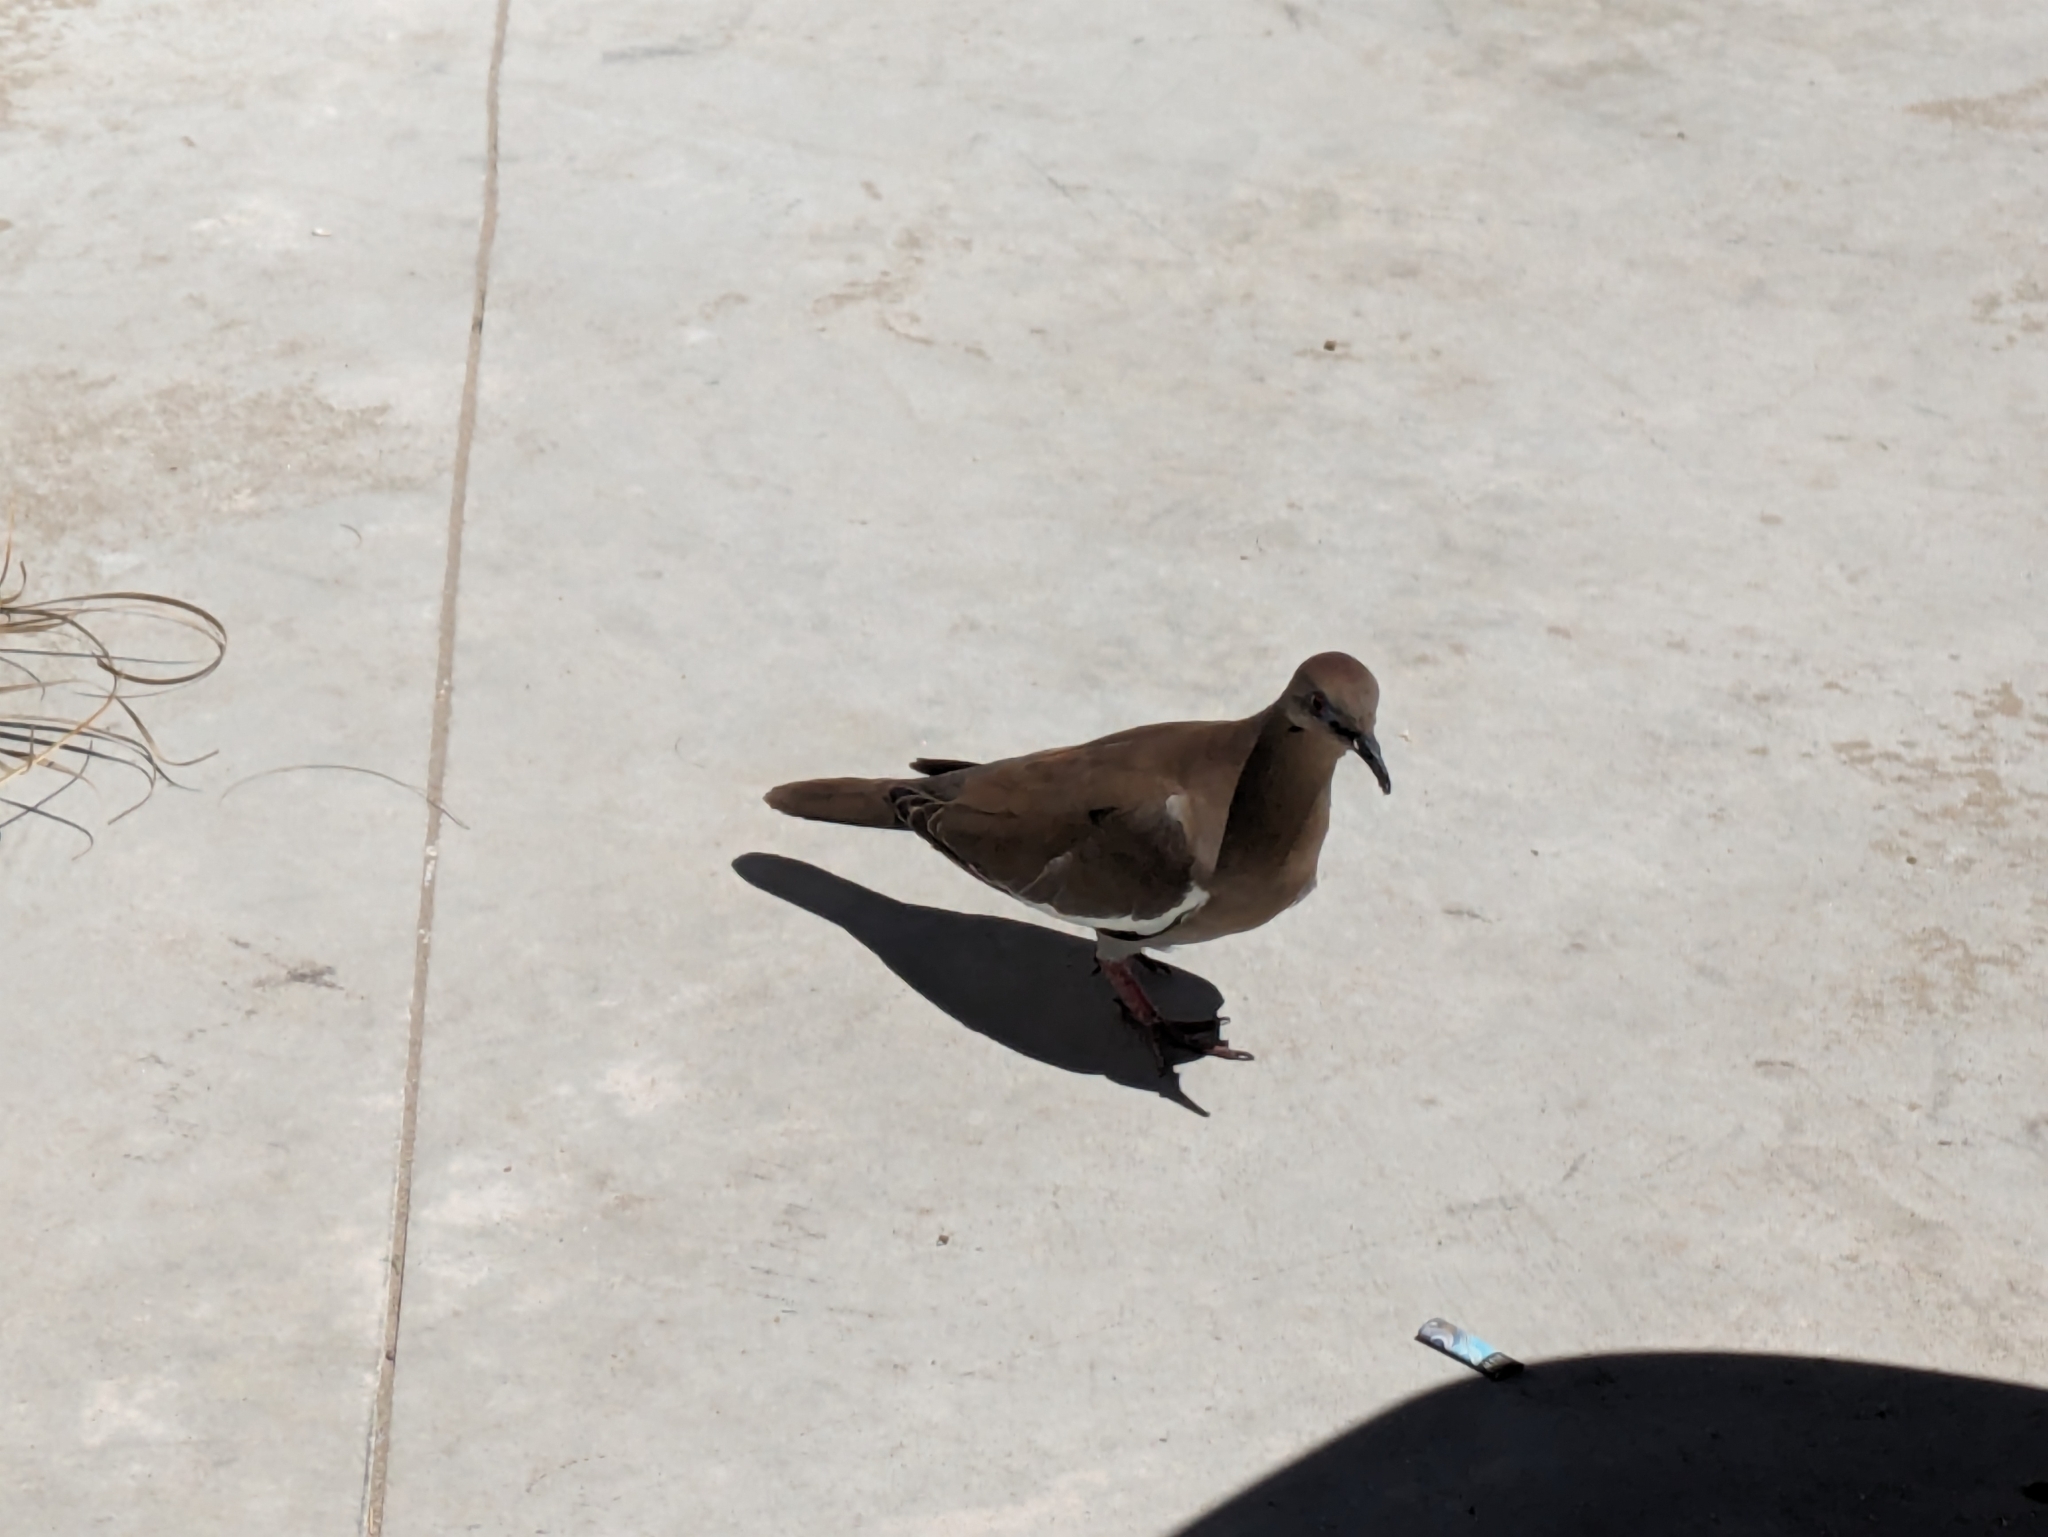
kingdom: Animalia
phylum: Chordata
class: Aves
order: Columbiformes
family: Columbidae
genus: Zenaida
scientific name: Zenaida asiatica
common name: White-winged dove
